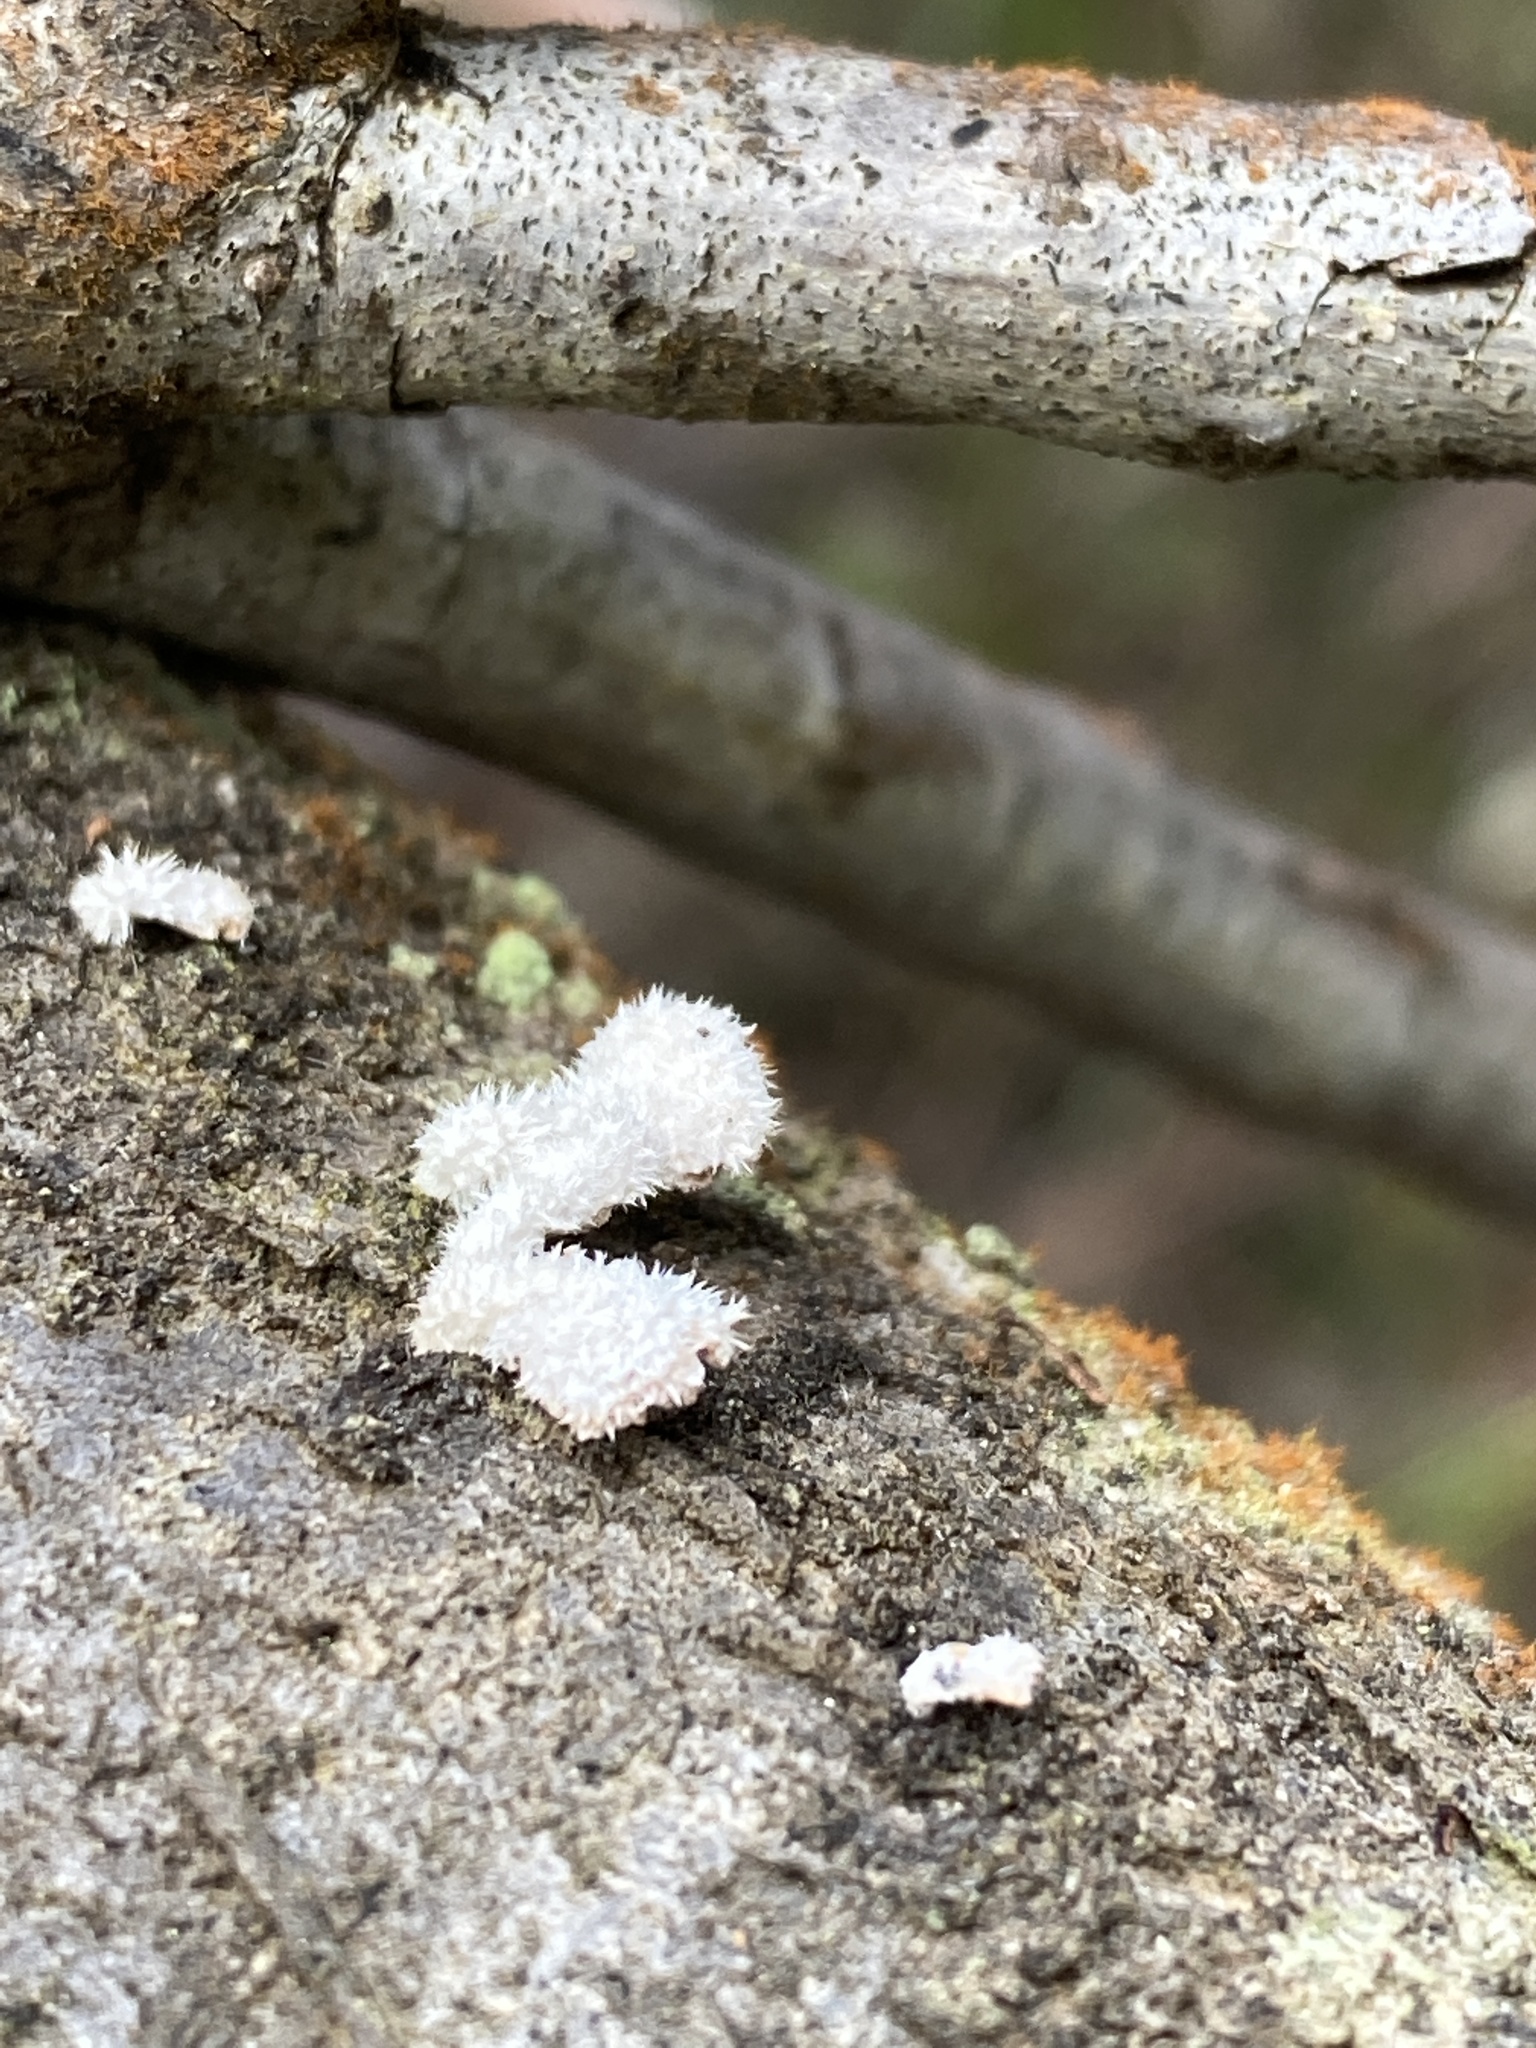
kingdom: Fungi
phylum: Basidiomycota
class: Agaricomycetes
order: Agaricales
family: Schizophyllaceae
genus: Schizophyllum
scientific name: Schizophyllum commune
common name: Common porecrust
